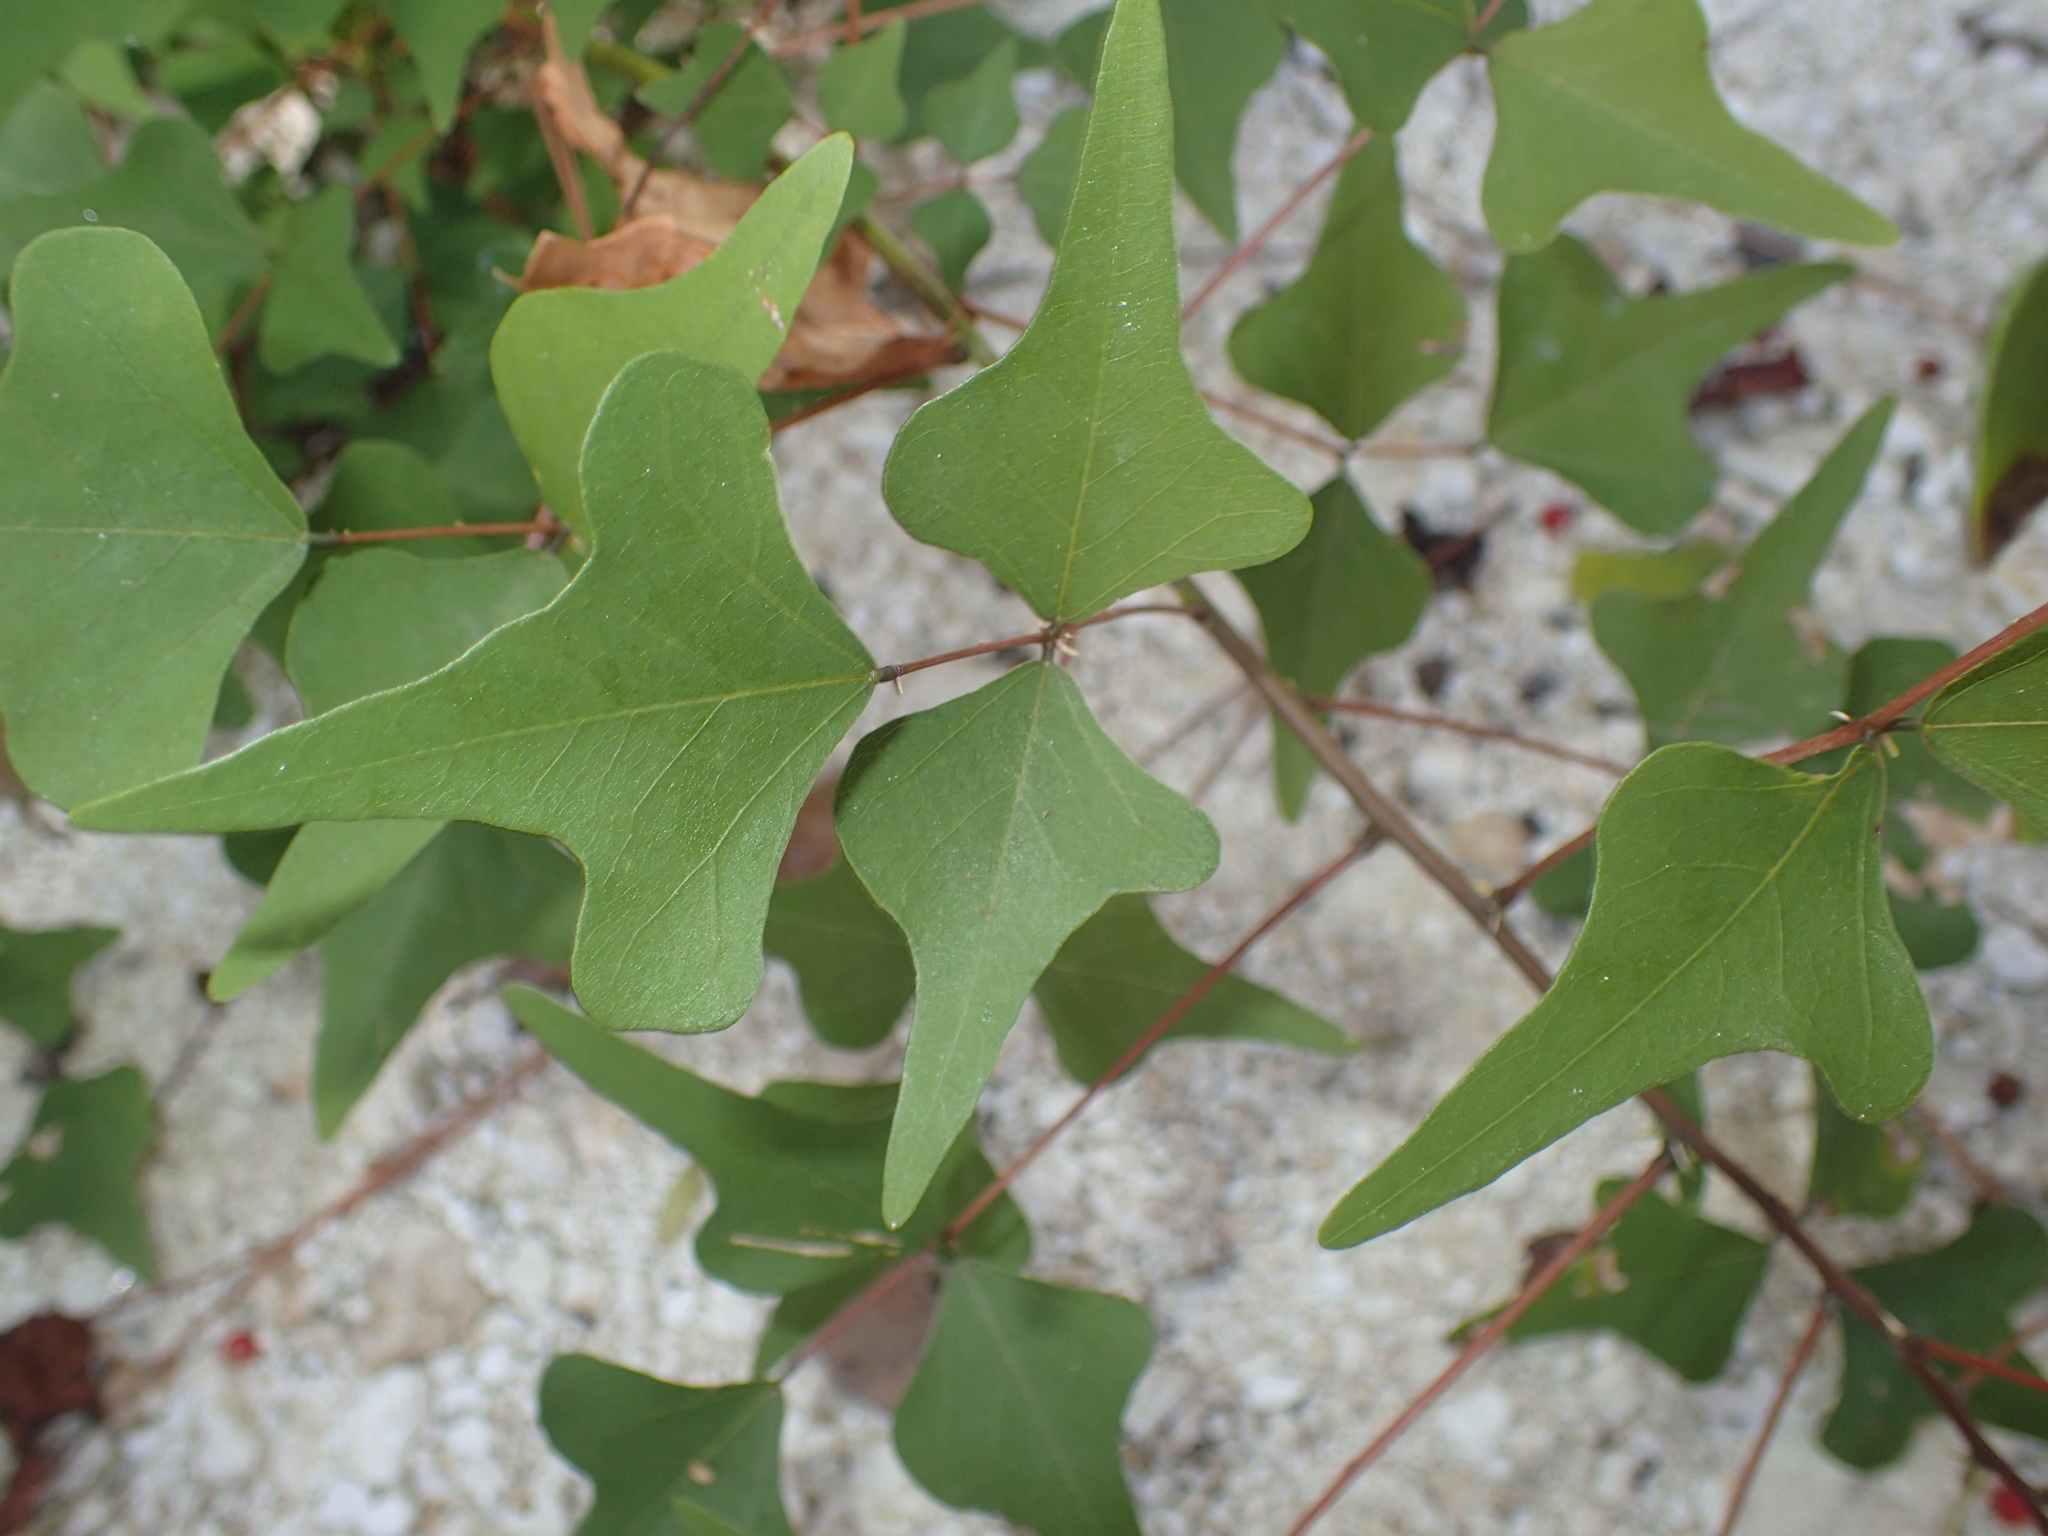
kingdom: Plantae
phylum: Tracheophyta
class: Magnoliopsida
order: Fabales
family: Fabaceae
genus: Erythrina
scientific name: Erythrina herbacea
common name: Coral-bean
